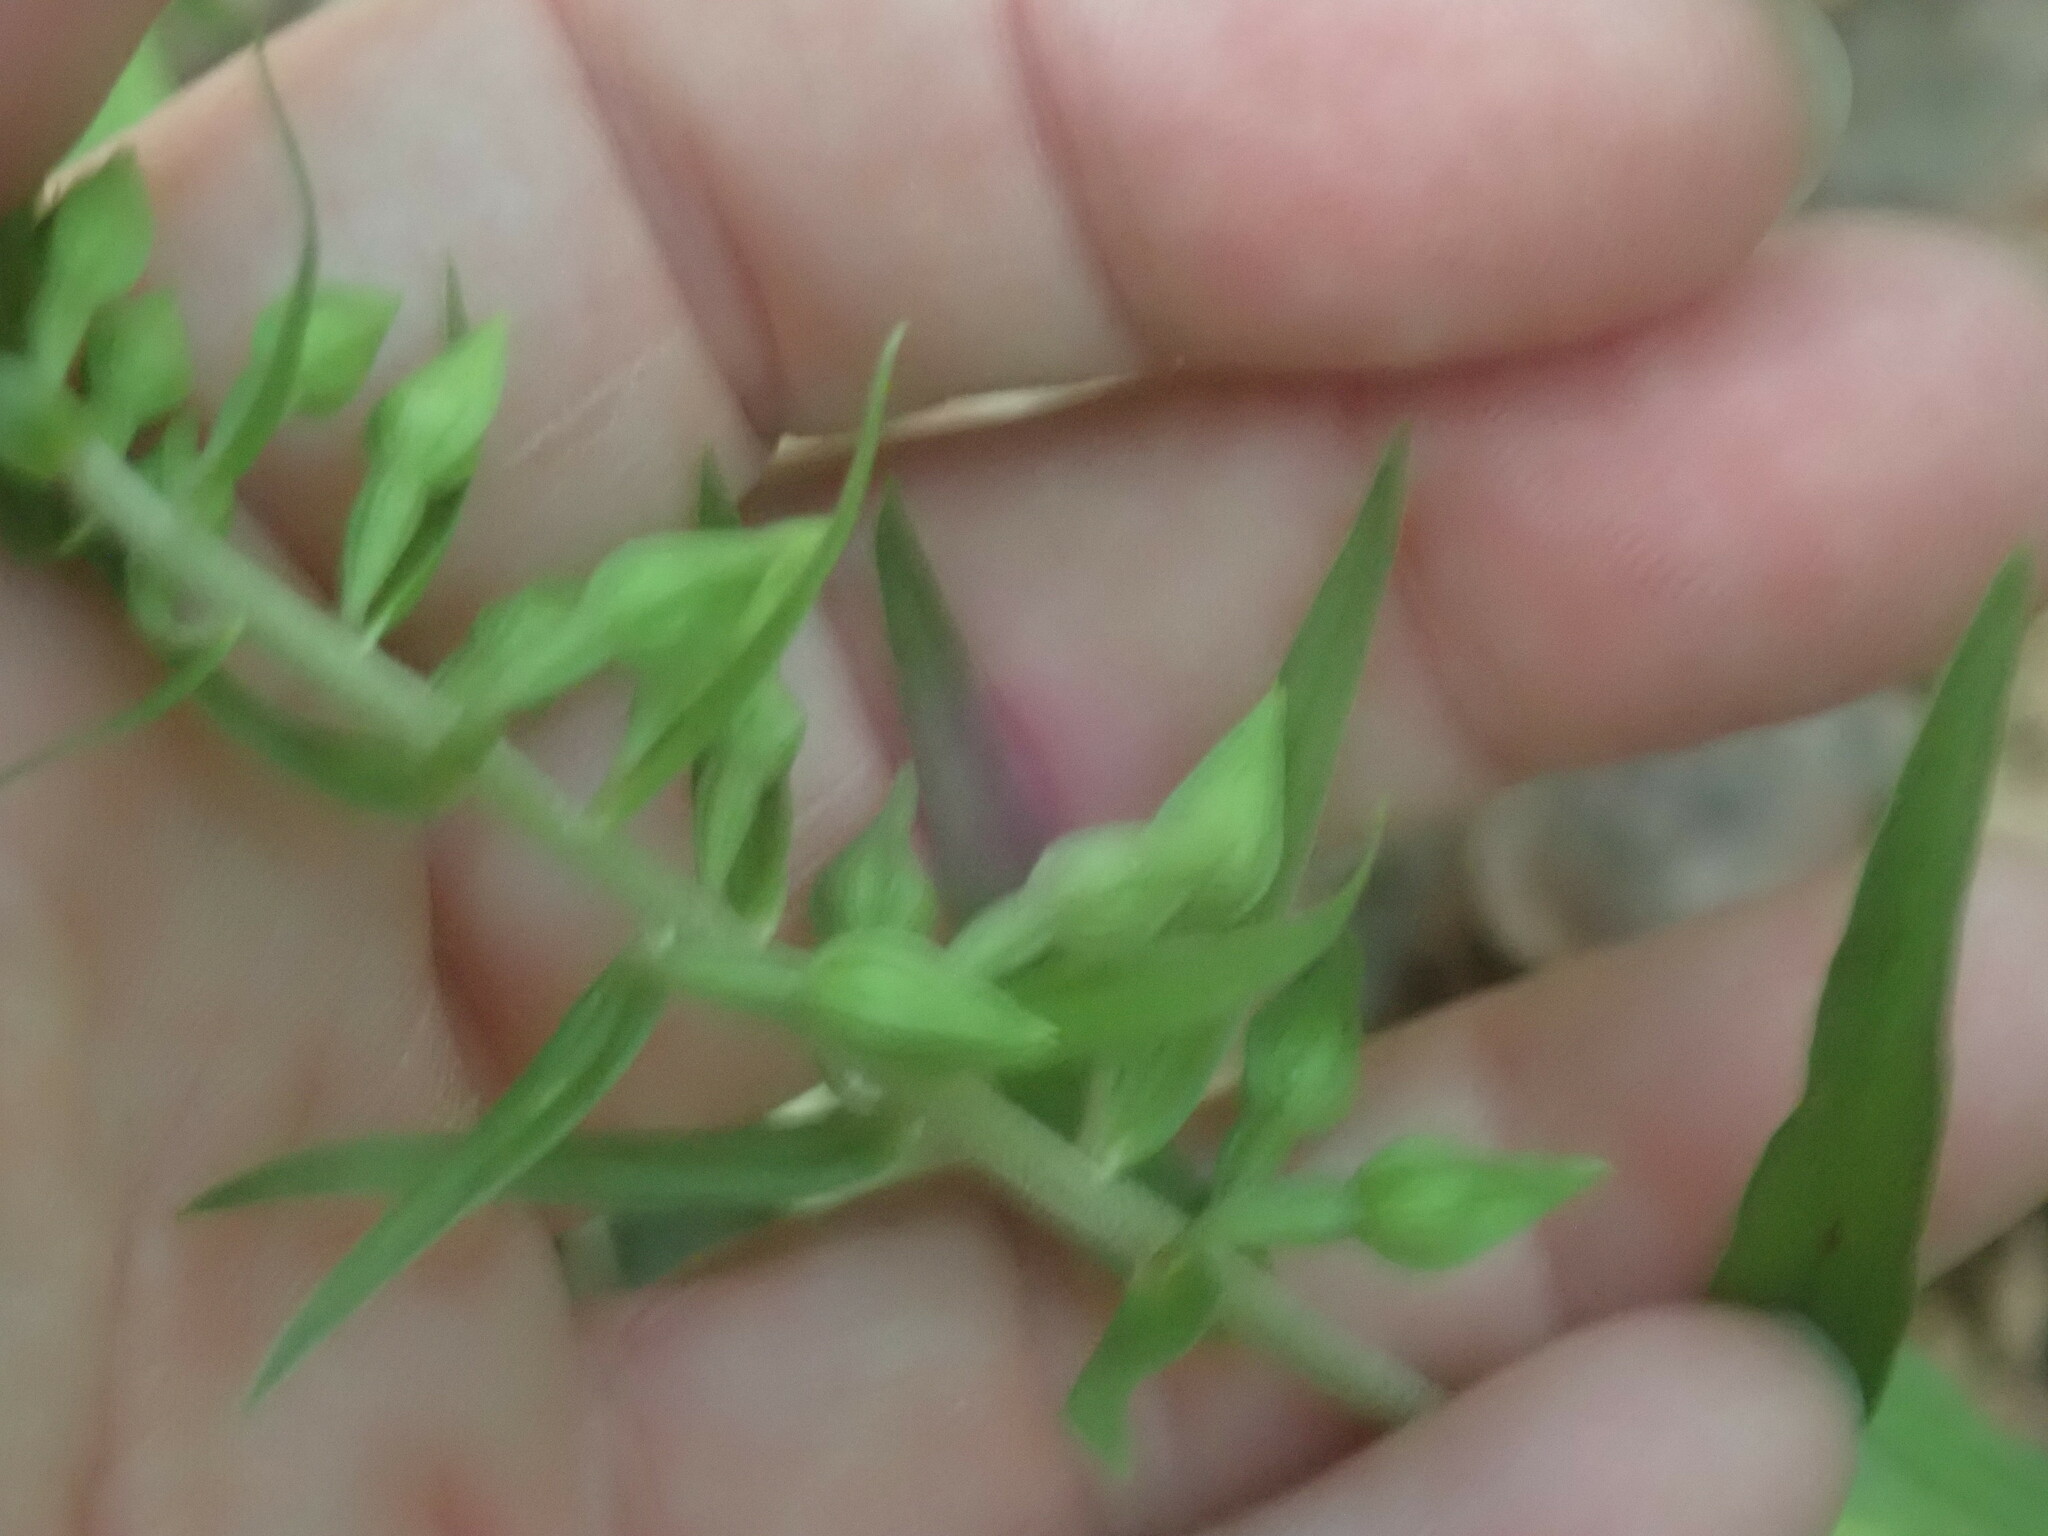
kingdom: Plantae
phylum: Tracheophyta
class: Liliopsida
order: Asparagales
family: Orchidaceae
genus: Epipactis
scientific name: Epipactis helleborine
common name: Broad-leaved helleborine
